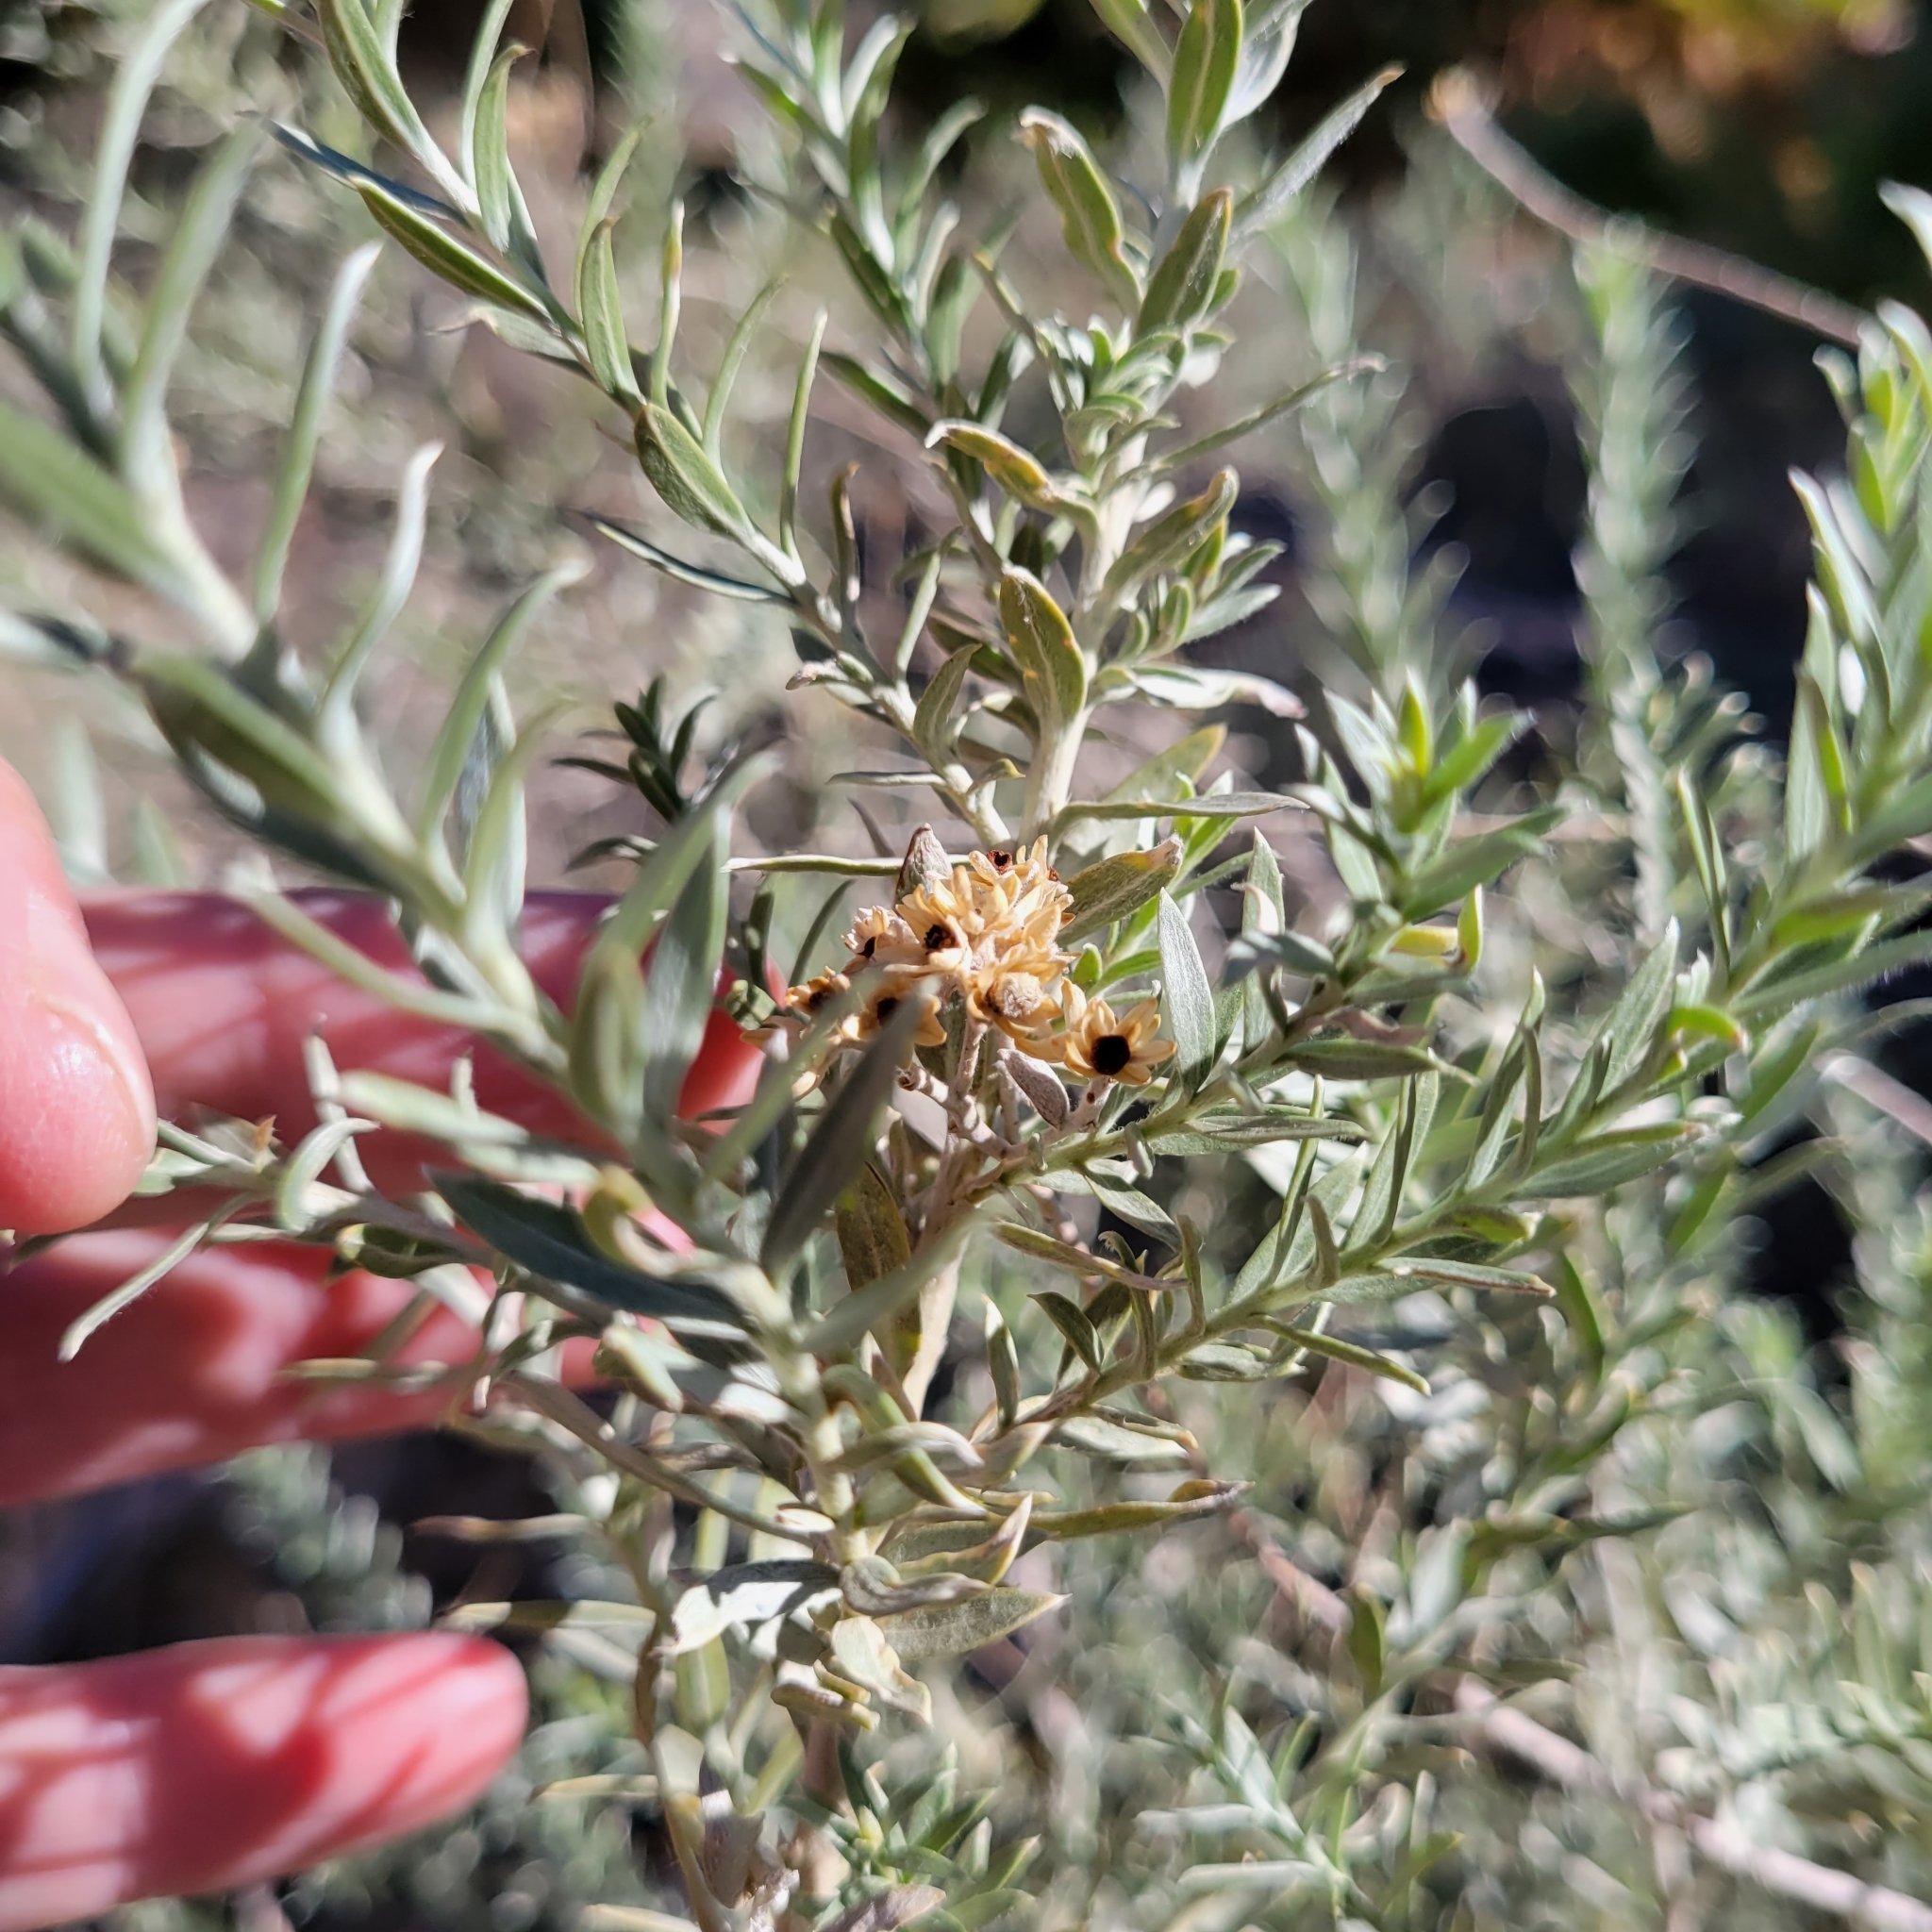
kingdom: Plantae
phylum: Tracheophyta
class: Magnoliopsida
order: Asterales
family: Asteraceae
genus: Pluchea
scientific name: Pluchea sericea
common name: Arrow-weed
